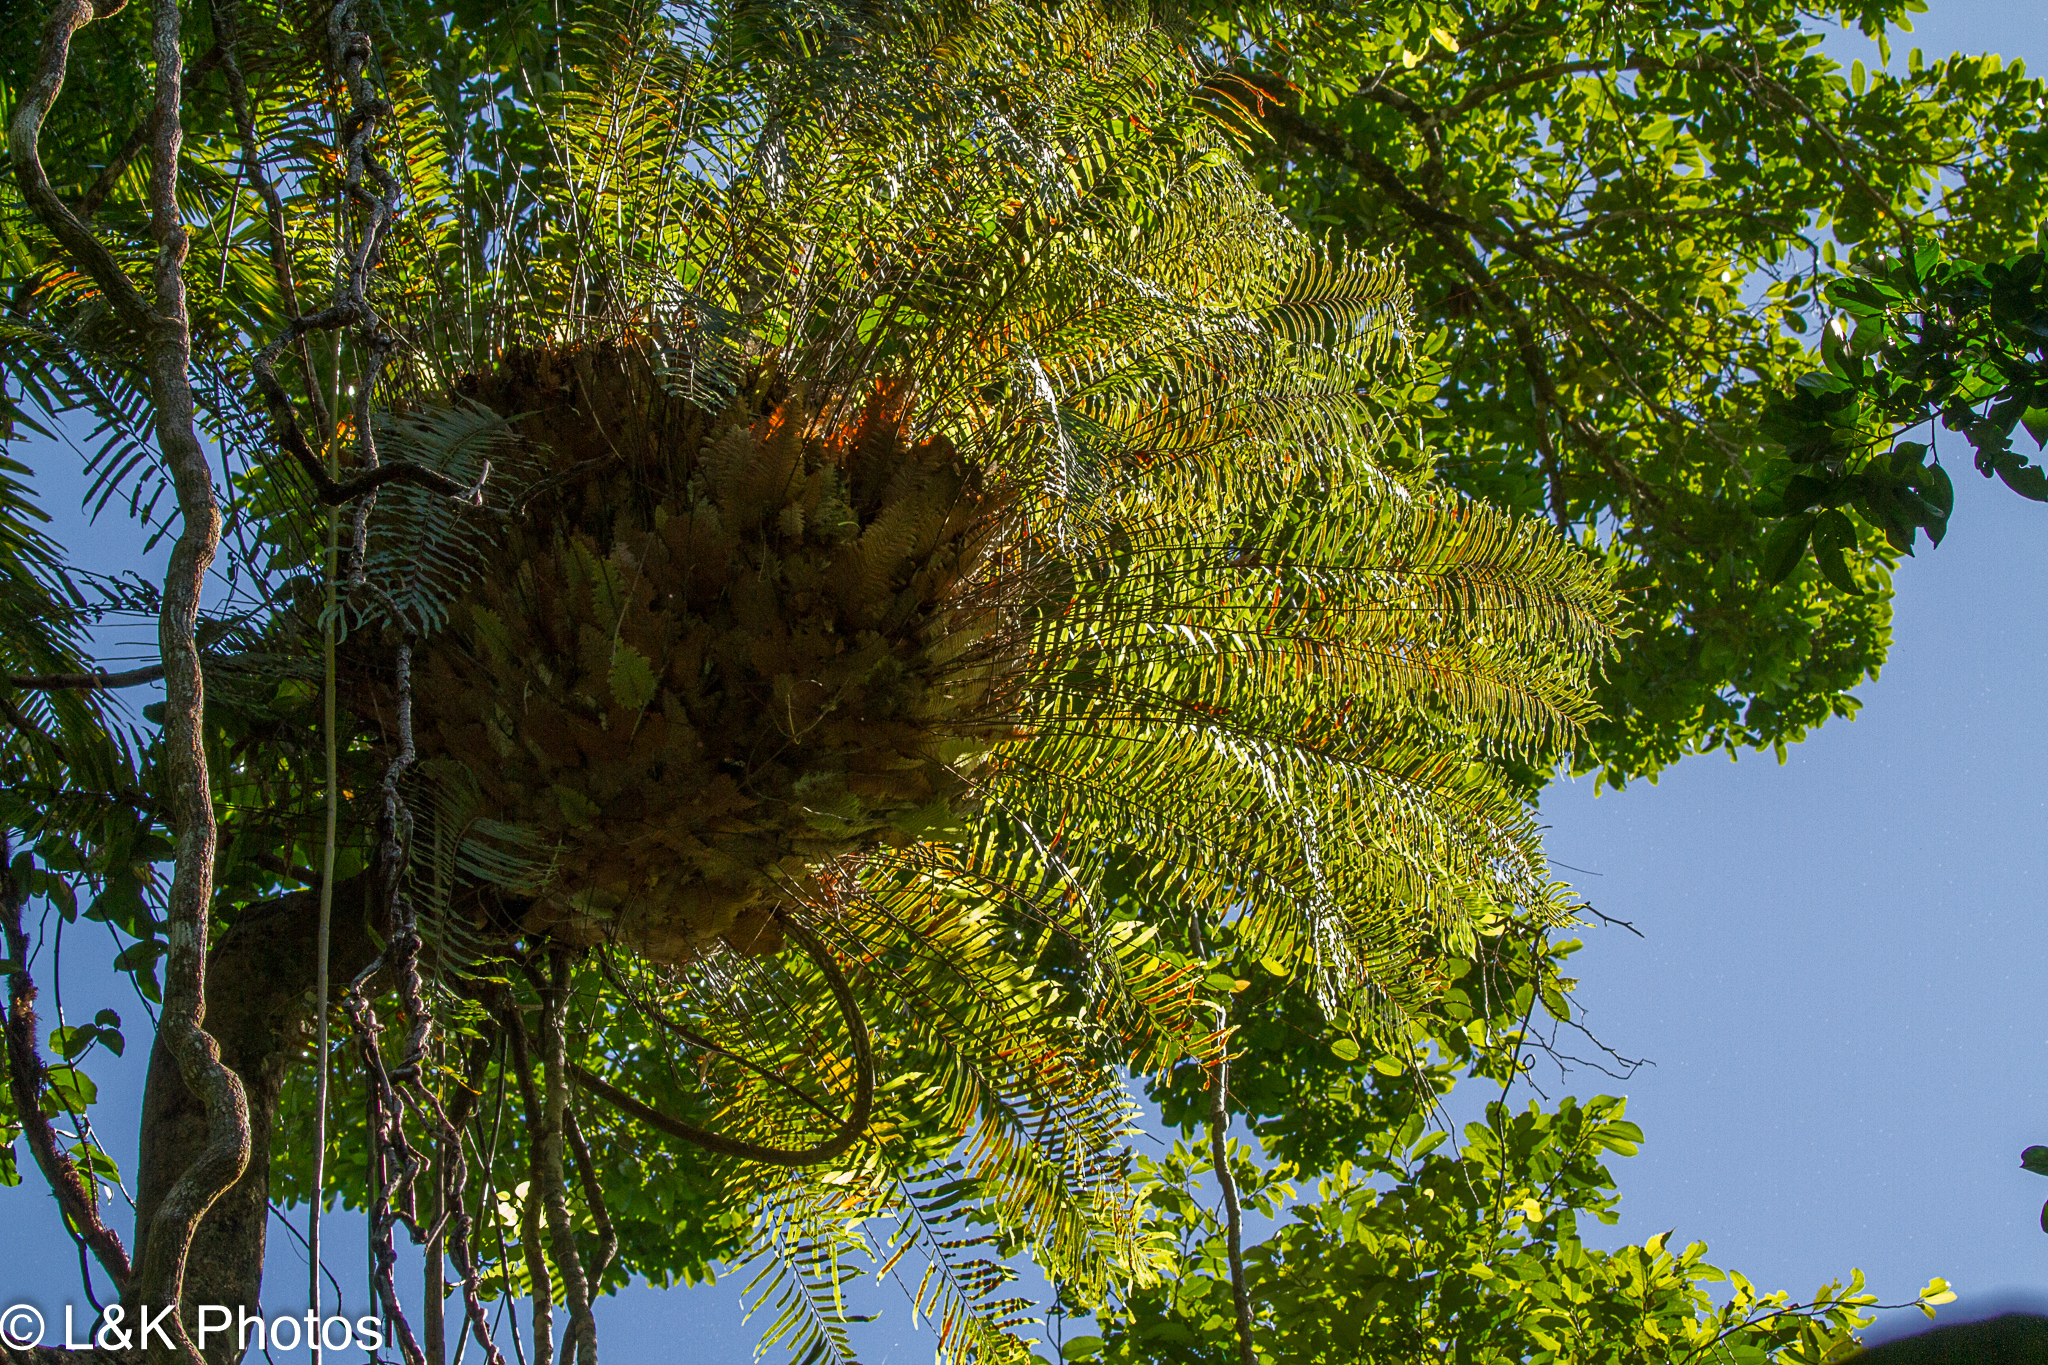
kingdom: Plantae
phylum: Tracheophyta
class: Polypodiopsida
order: Polypodiales
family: Polypodiaceae
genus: Drynaria
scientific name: Drynaria rigidula
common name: Basket fern
